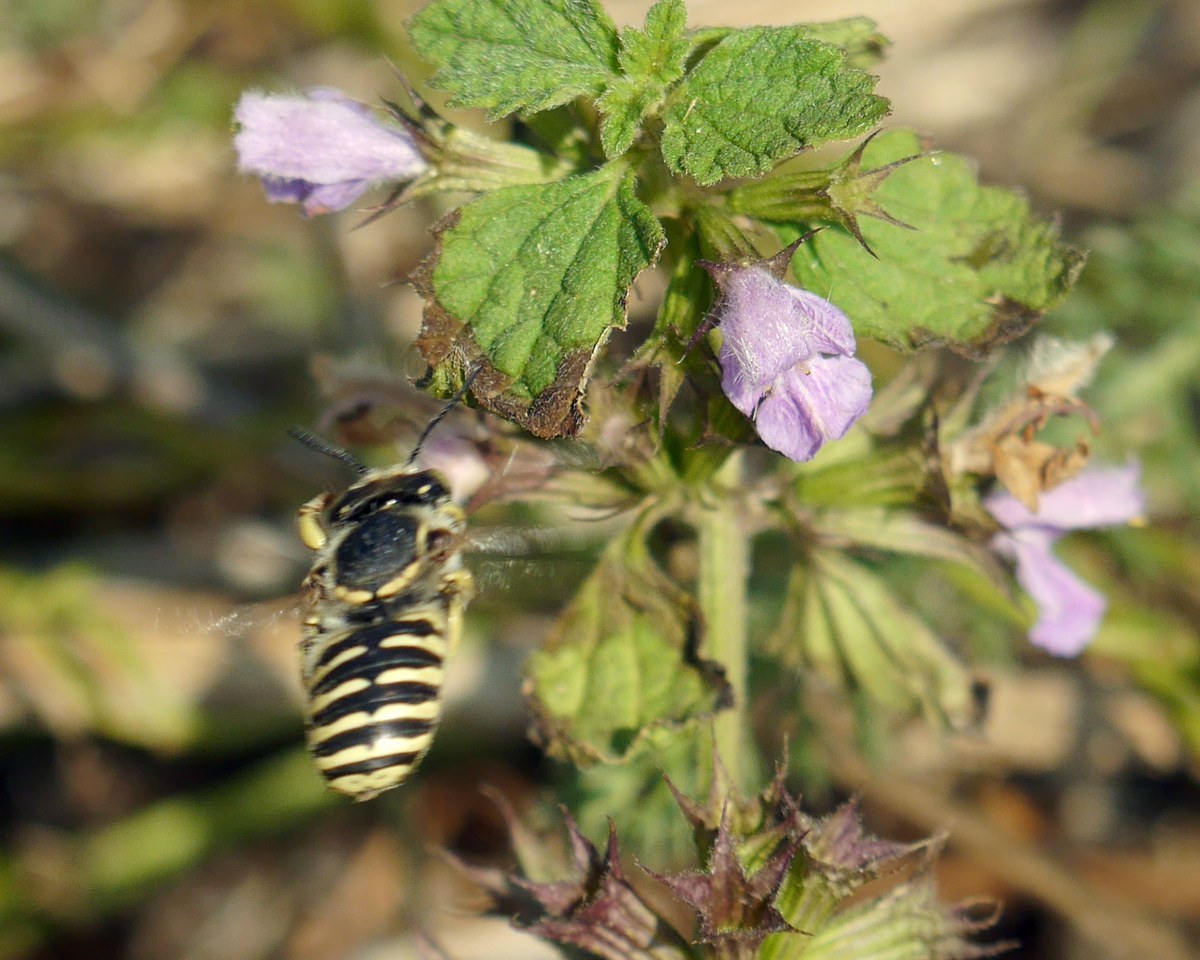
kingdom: Animalia
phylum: Arthropoda
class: Insecta
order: Hymenoptera
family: Megachilidae
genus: Anthidium
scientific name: Anthidium cingulatum
